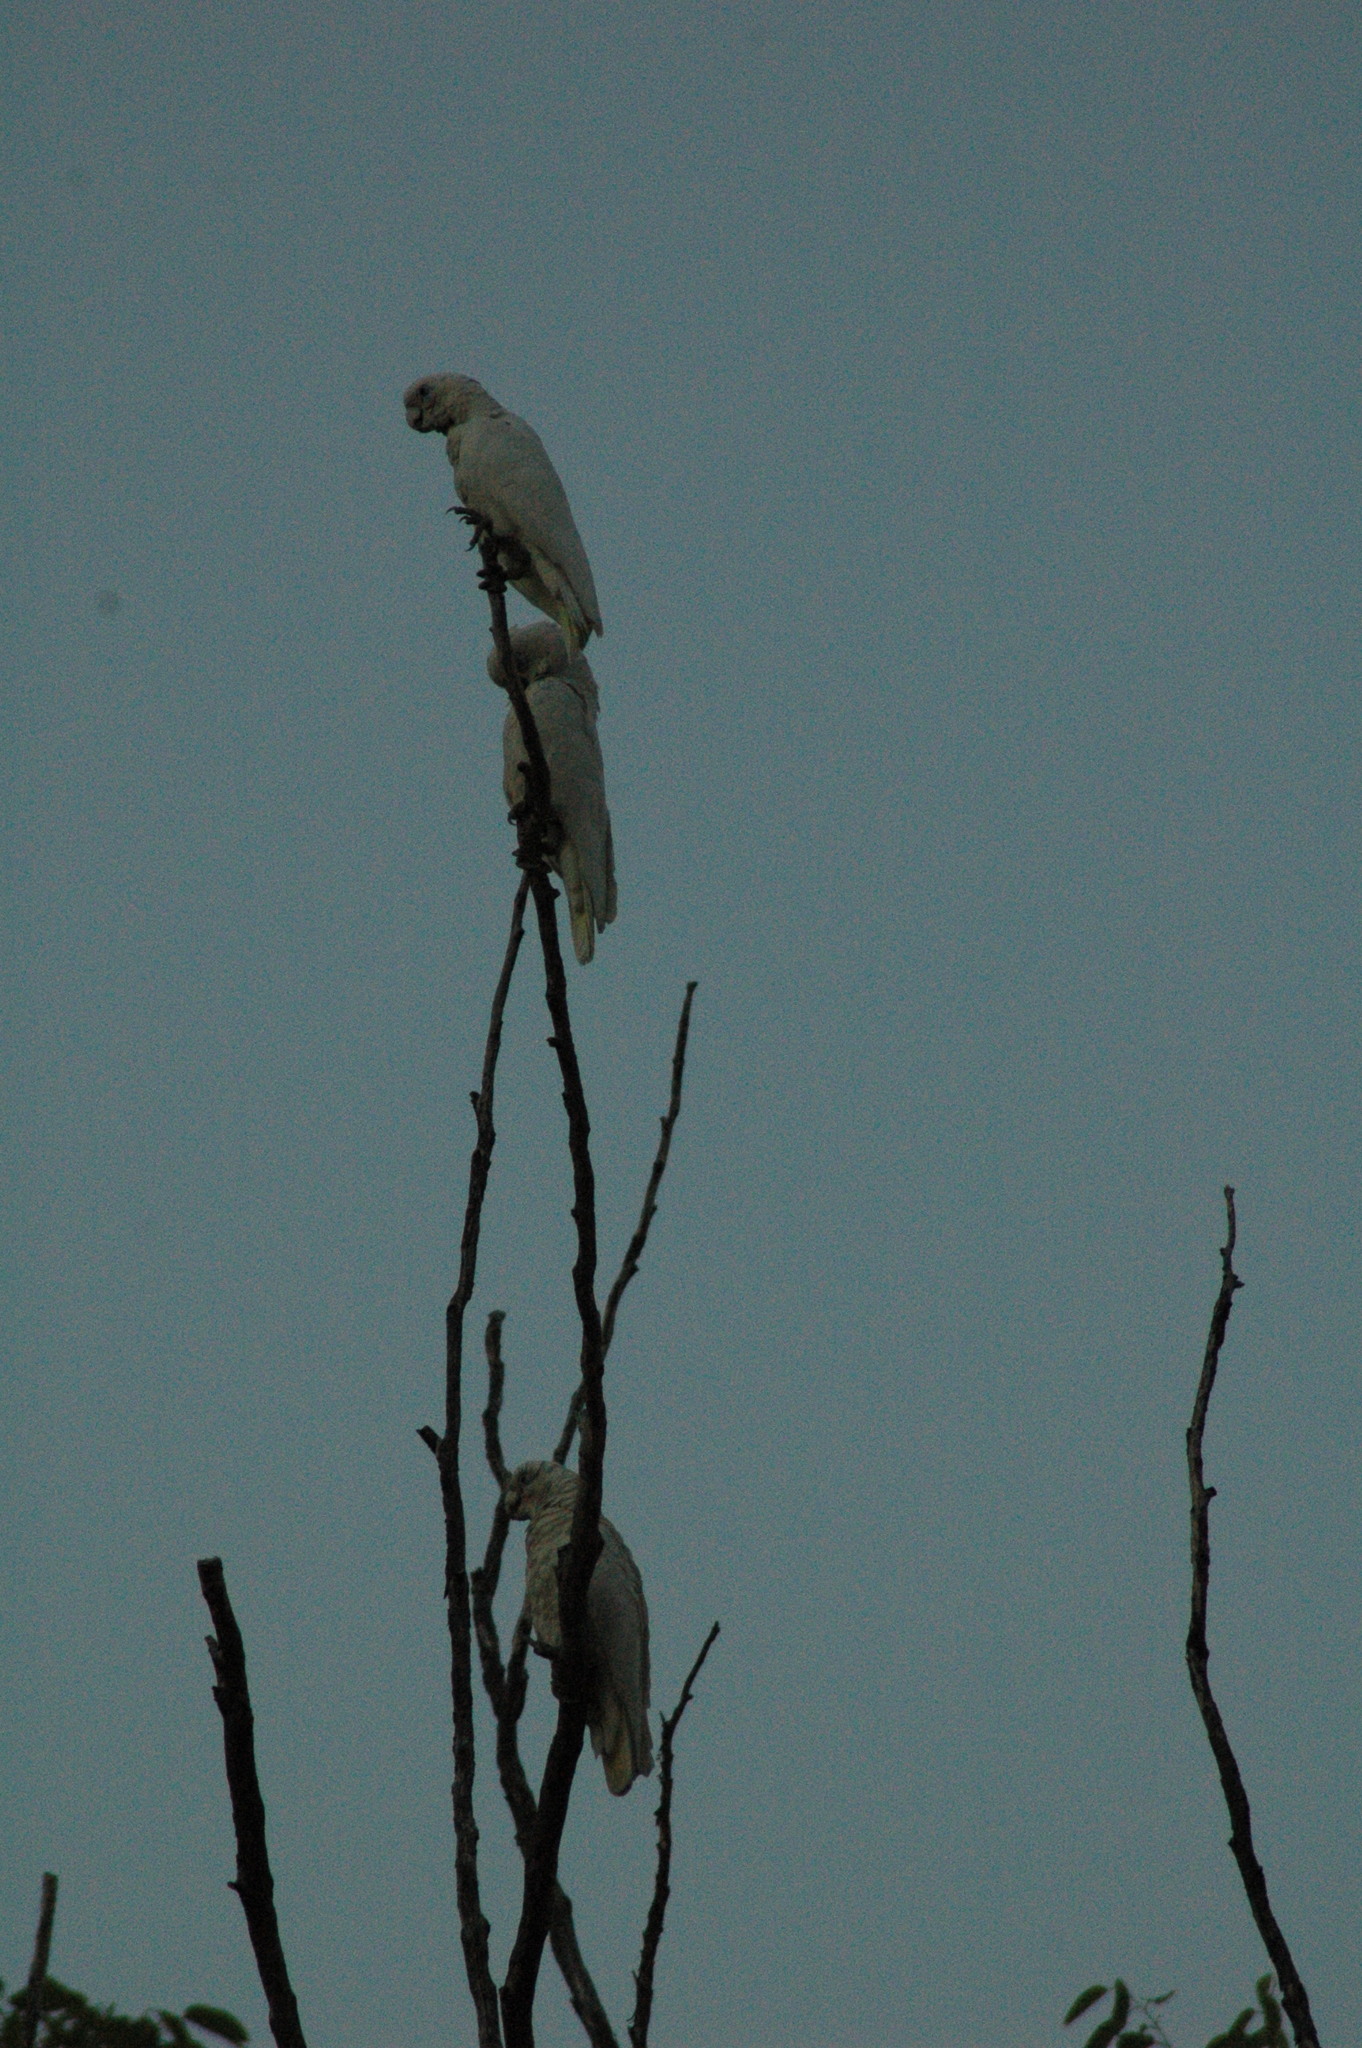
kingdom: Animalia
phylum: Chordata
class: Aves
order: Psittaciformes
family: Psittacidae
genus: Cacatua
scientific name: Cacatua sanguinea
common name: Little corella
